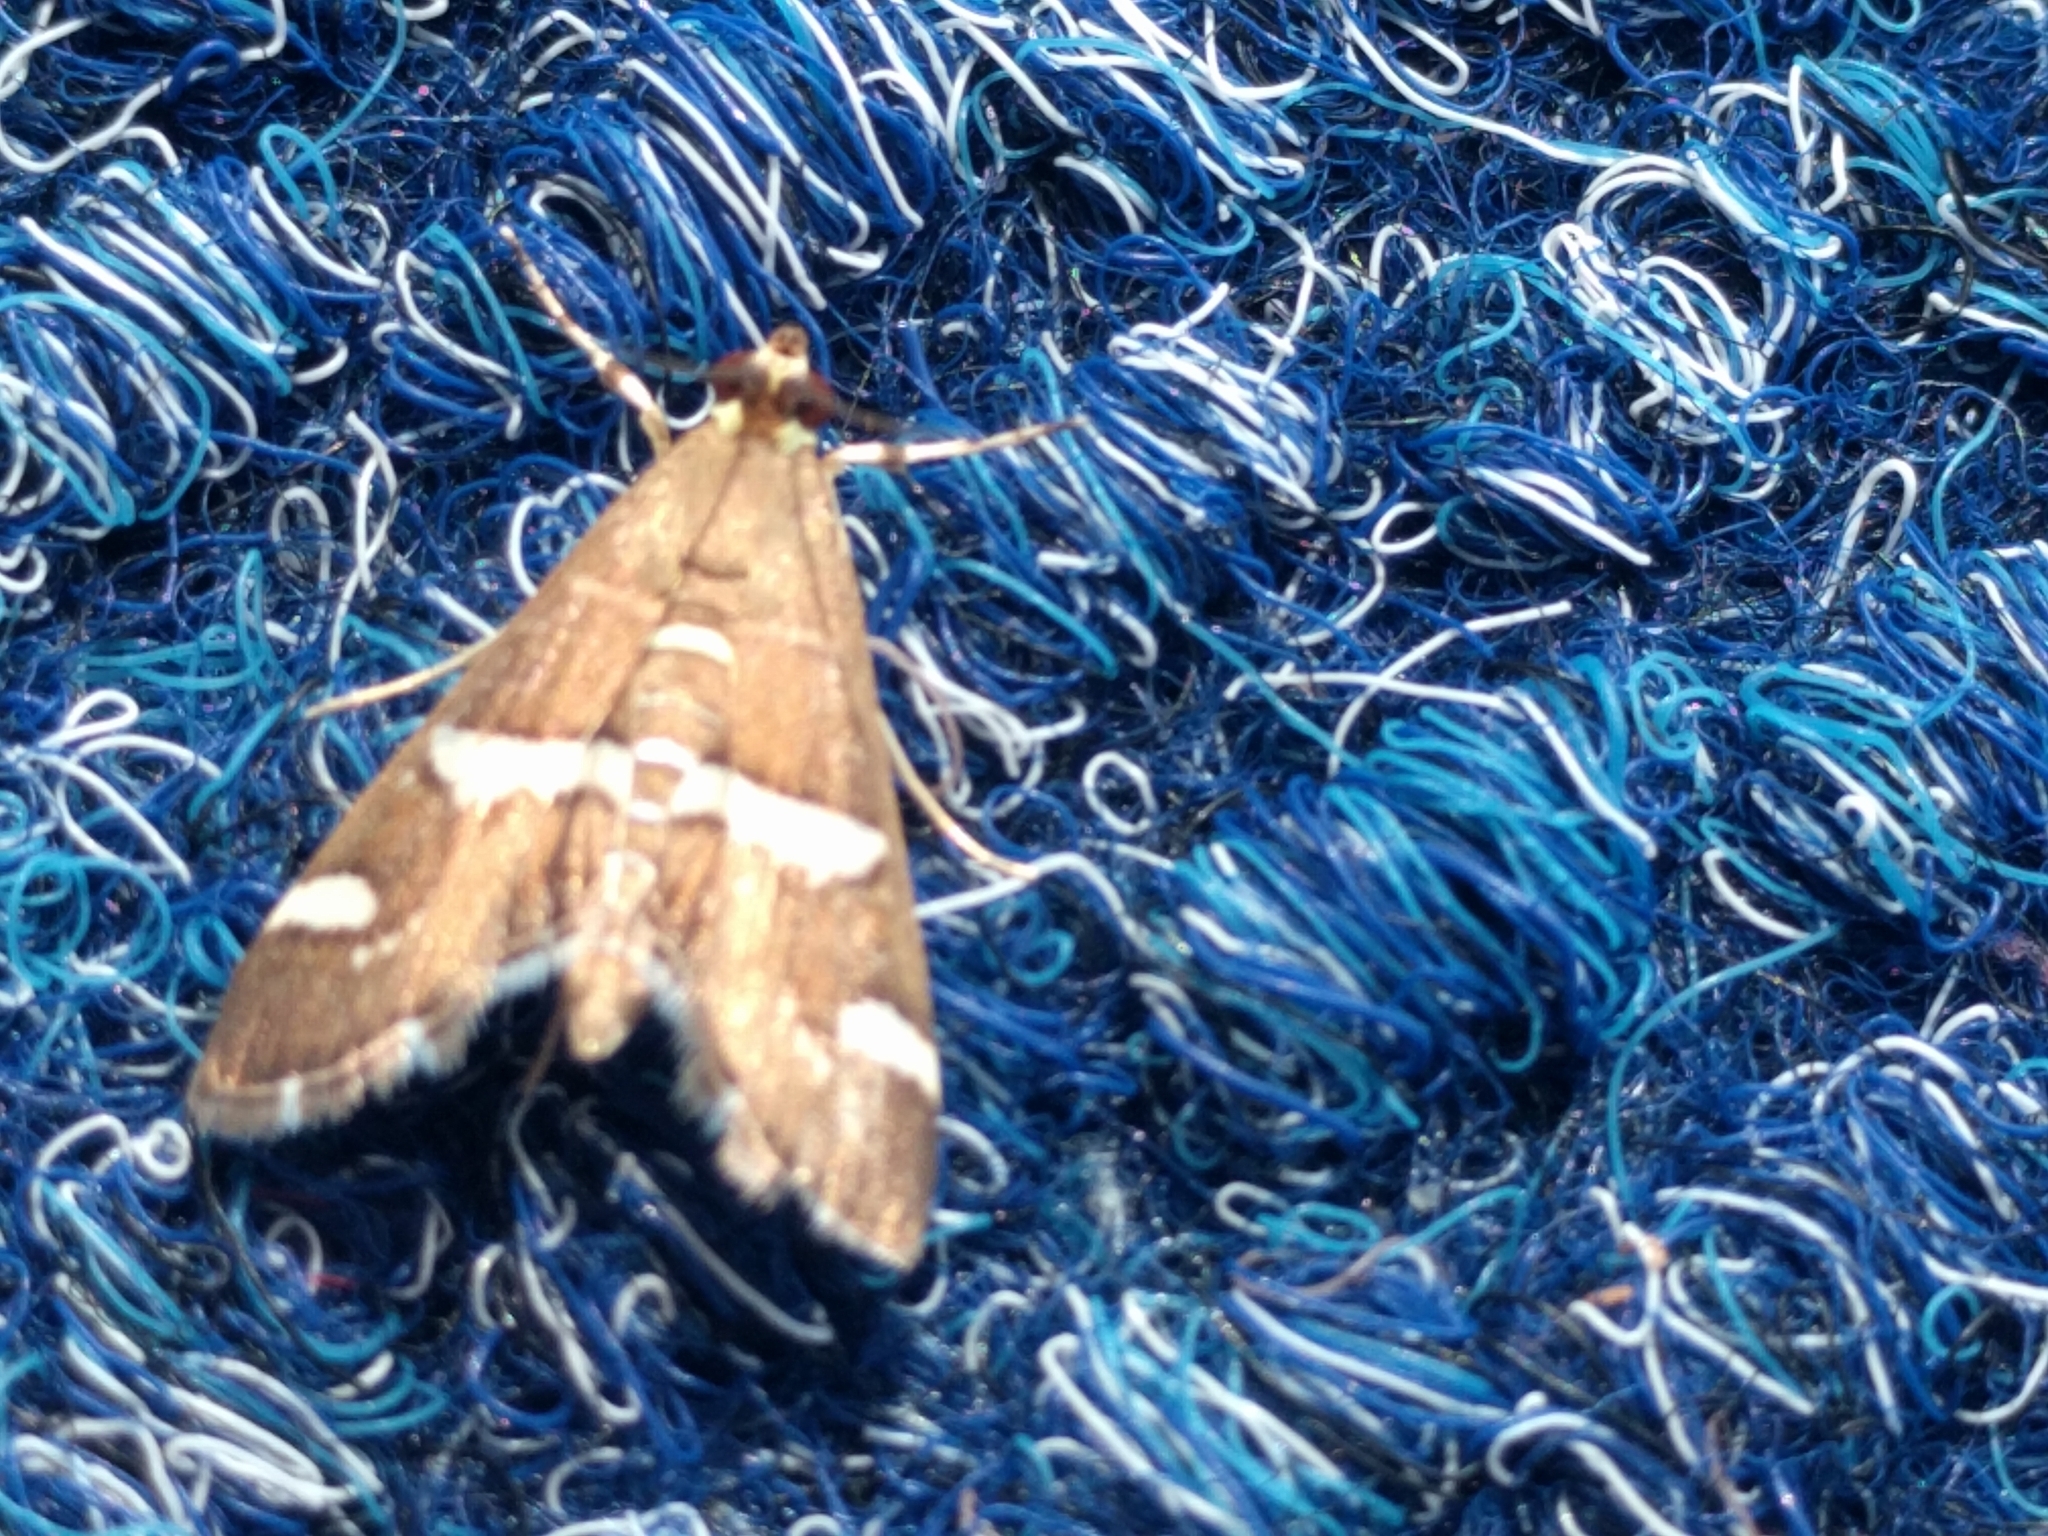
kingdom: Animalia
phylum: Arthropoda
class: Insecta
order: Lepidoptera
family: Crambidae
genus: Spoladea
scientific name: Spoladea recurvalis
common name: Beet webworm moth
